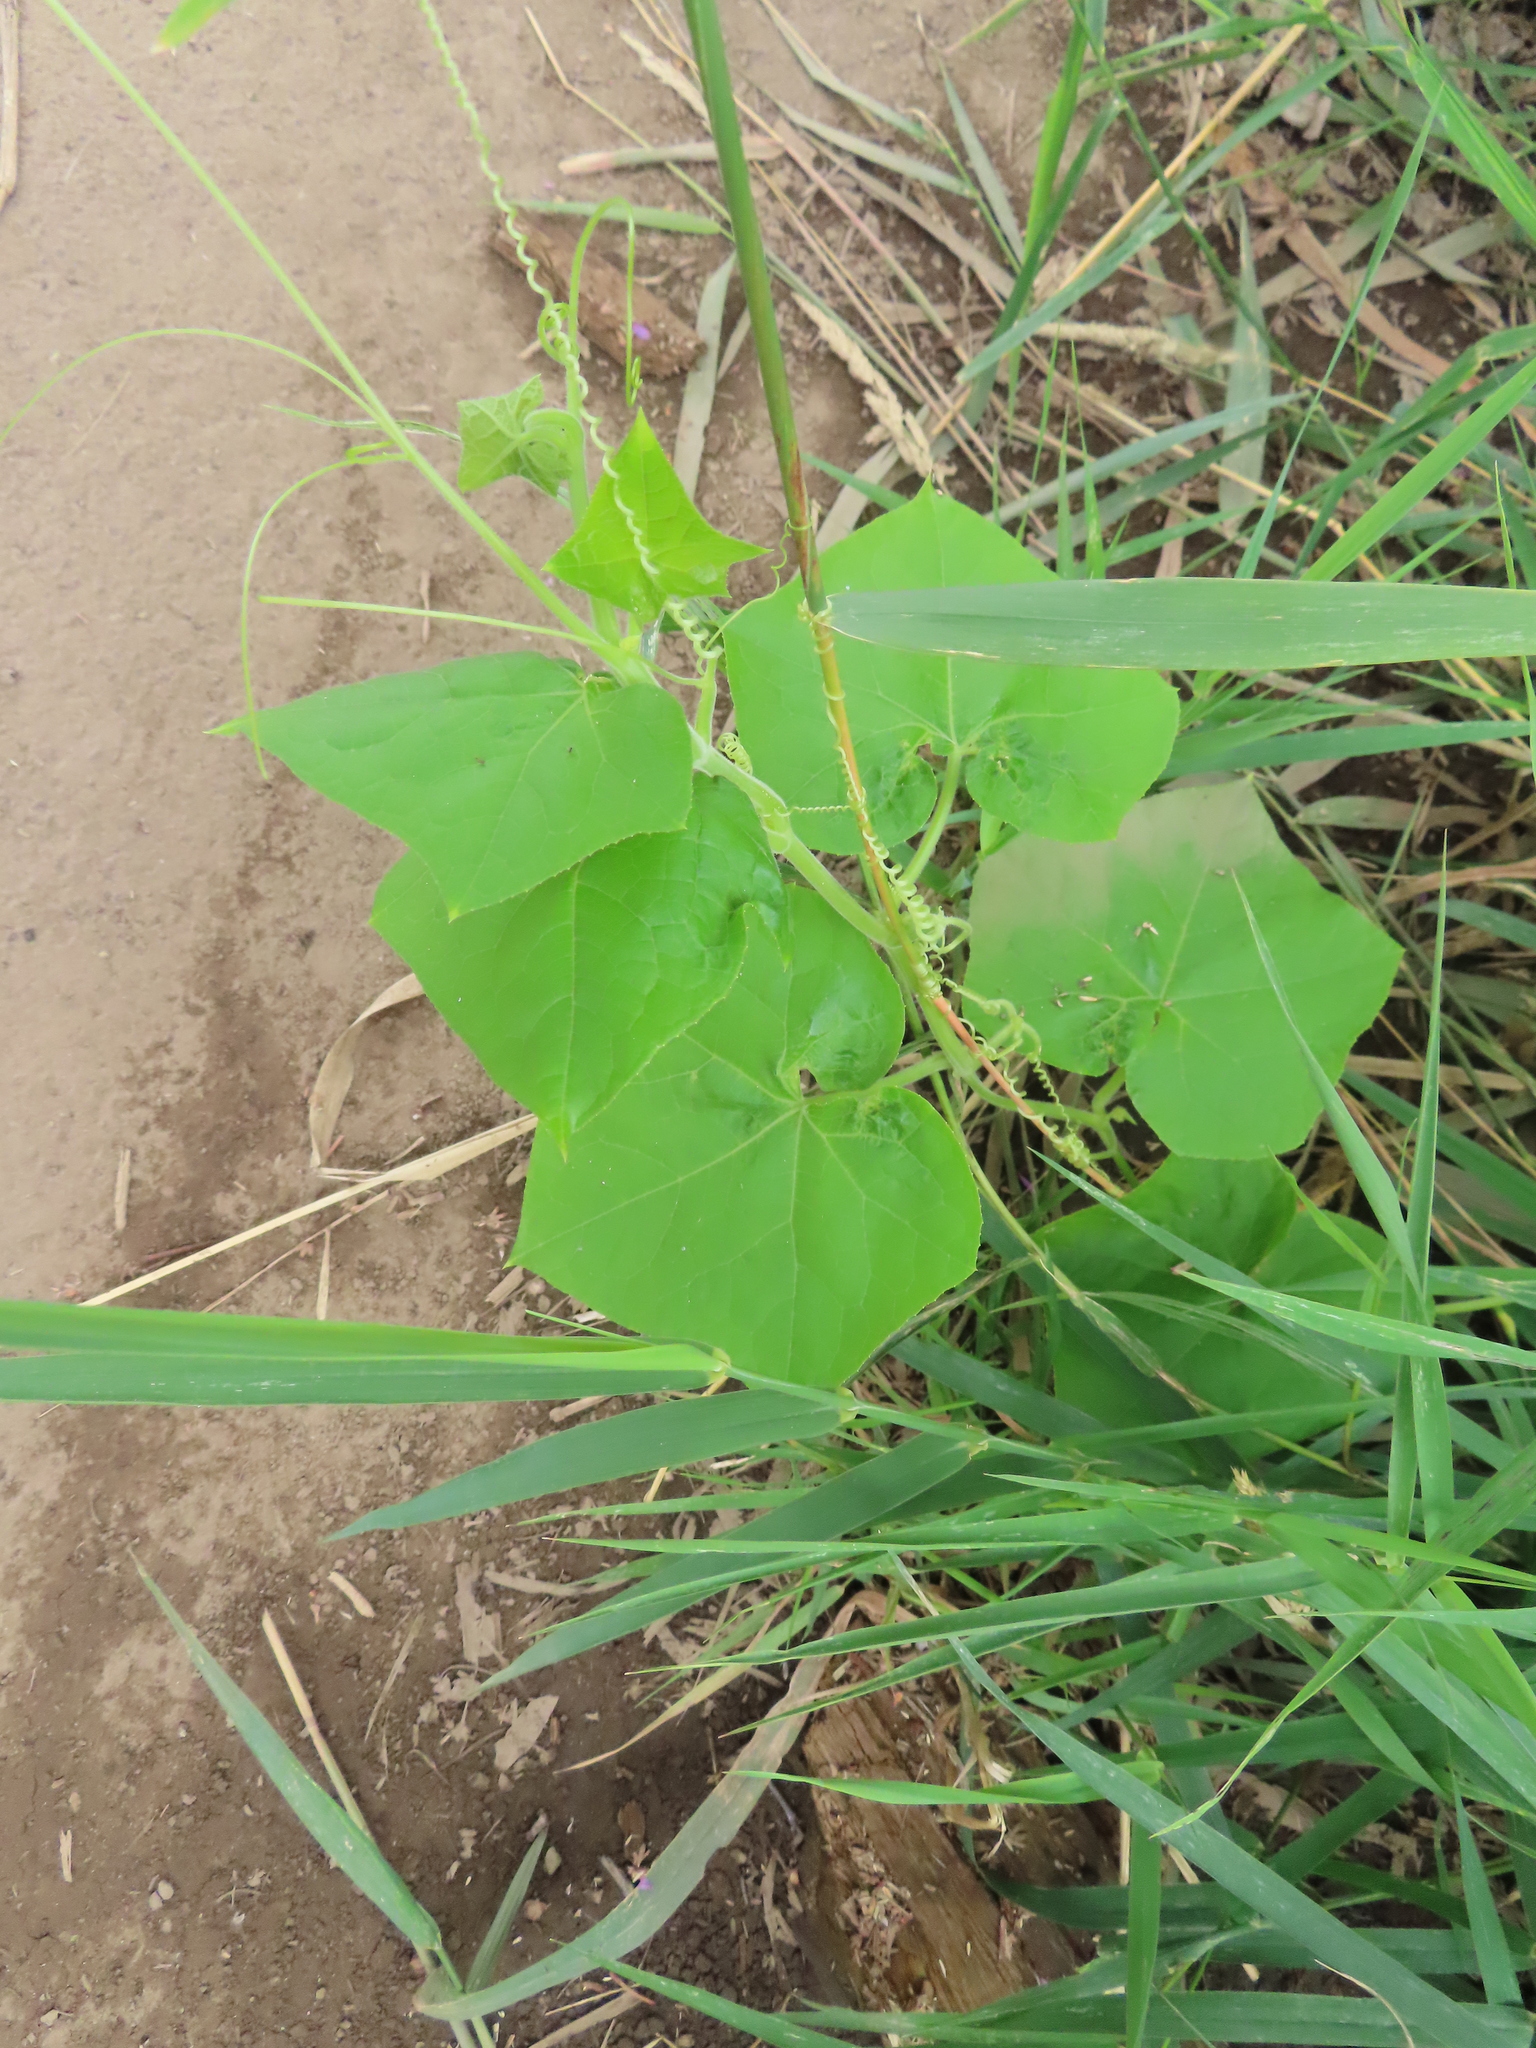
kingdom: Plantae
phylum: Tracheophyta
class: Magnoliopsida
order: Cucurbitales
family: Cucurbitaceae
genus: Sicyos
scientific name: Sicyos angulatus
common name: Angled burr cucumber
